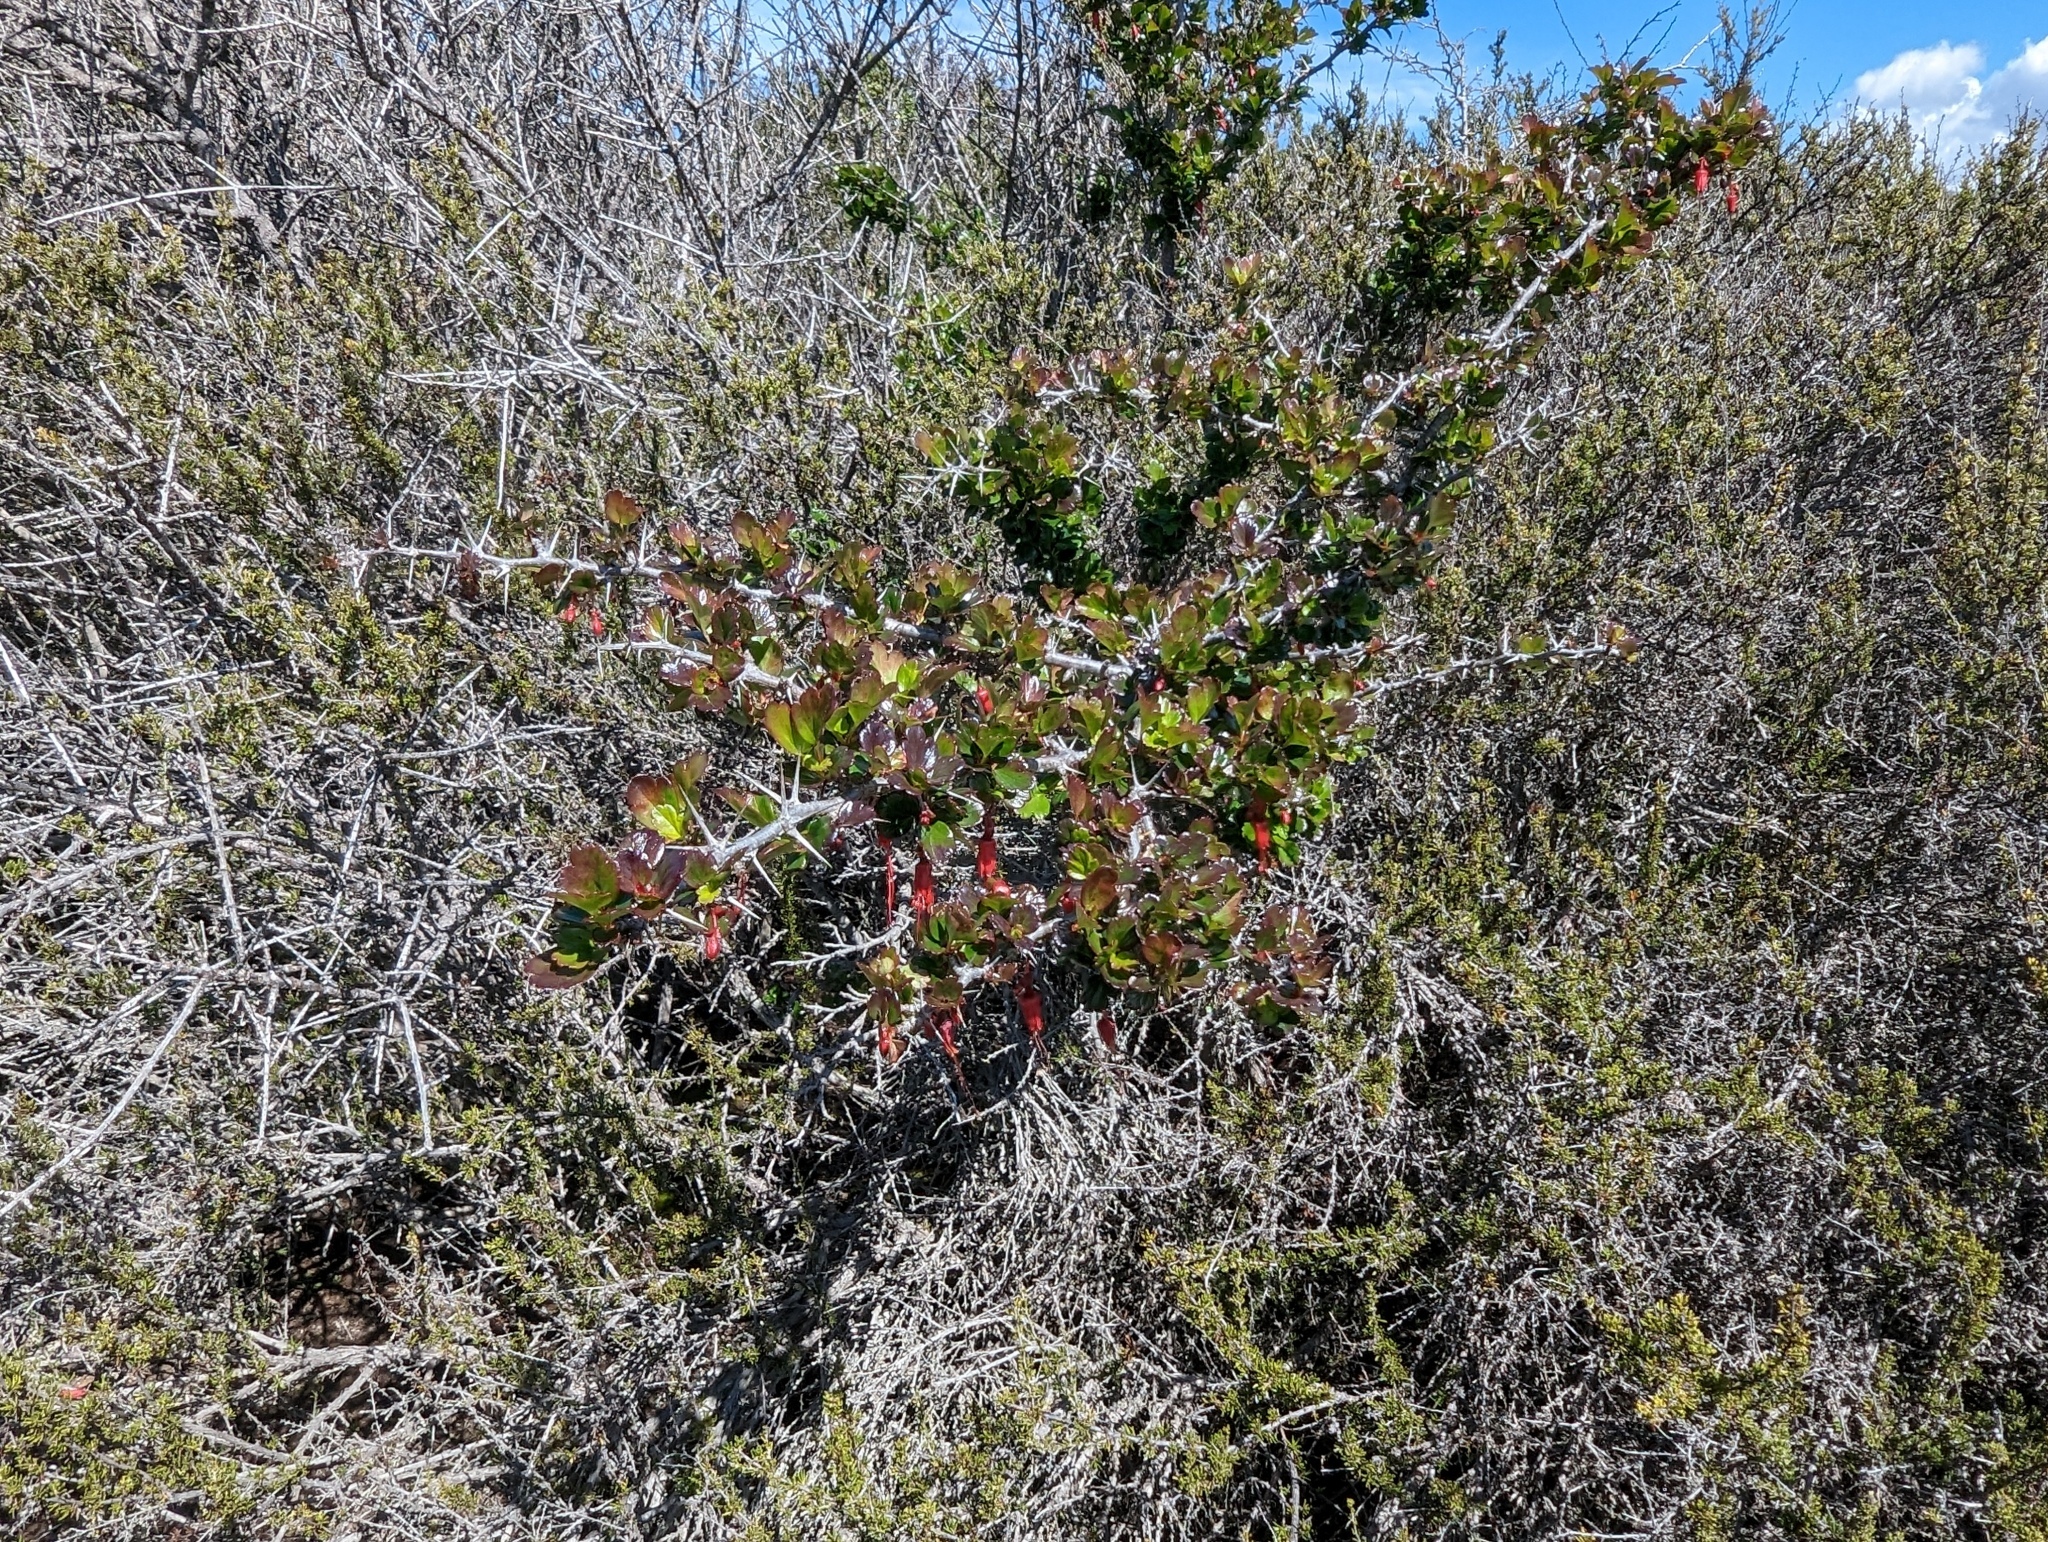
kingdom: Plantae
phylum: Tracheophyta
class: Magnoliopsida
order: Saxifragales
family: Grossulariaceae
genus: Ribes
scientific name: Ribes speciosum
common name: Fuchsia-flower gooseberry
